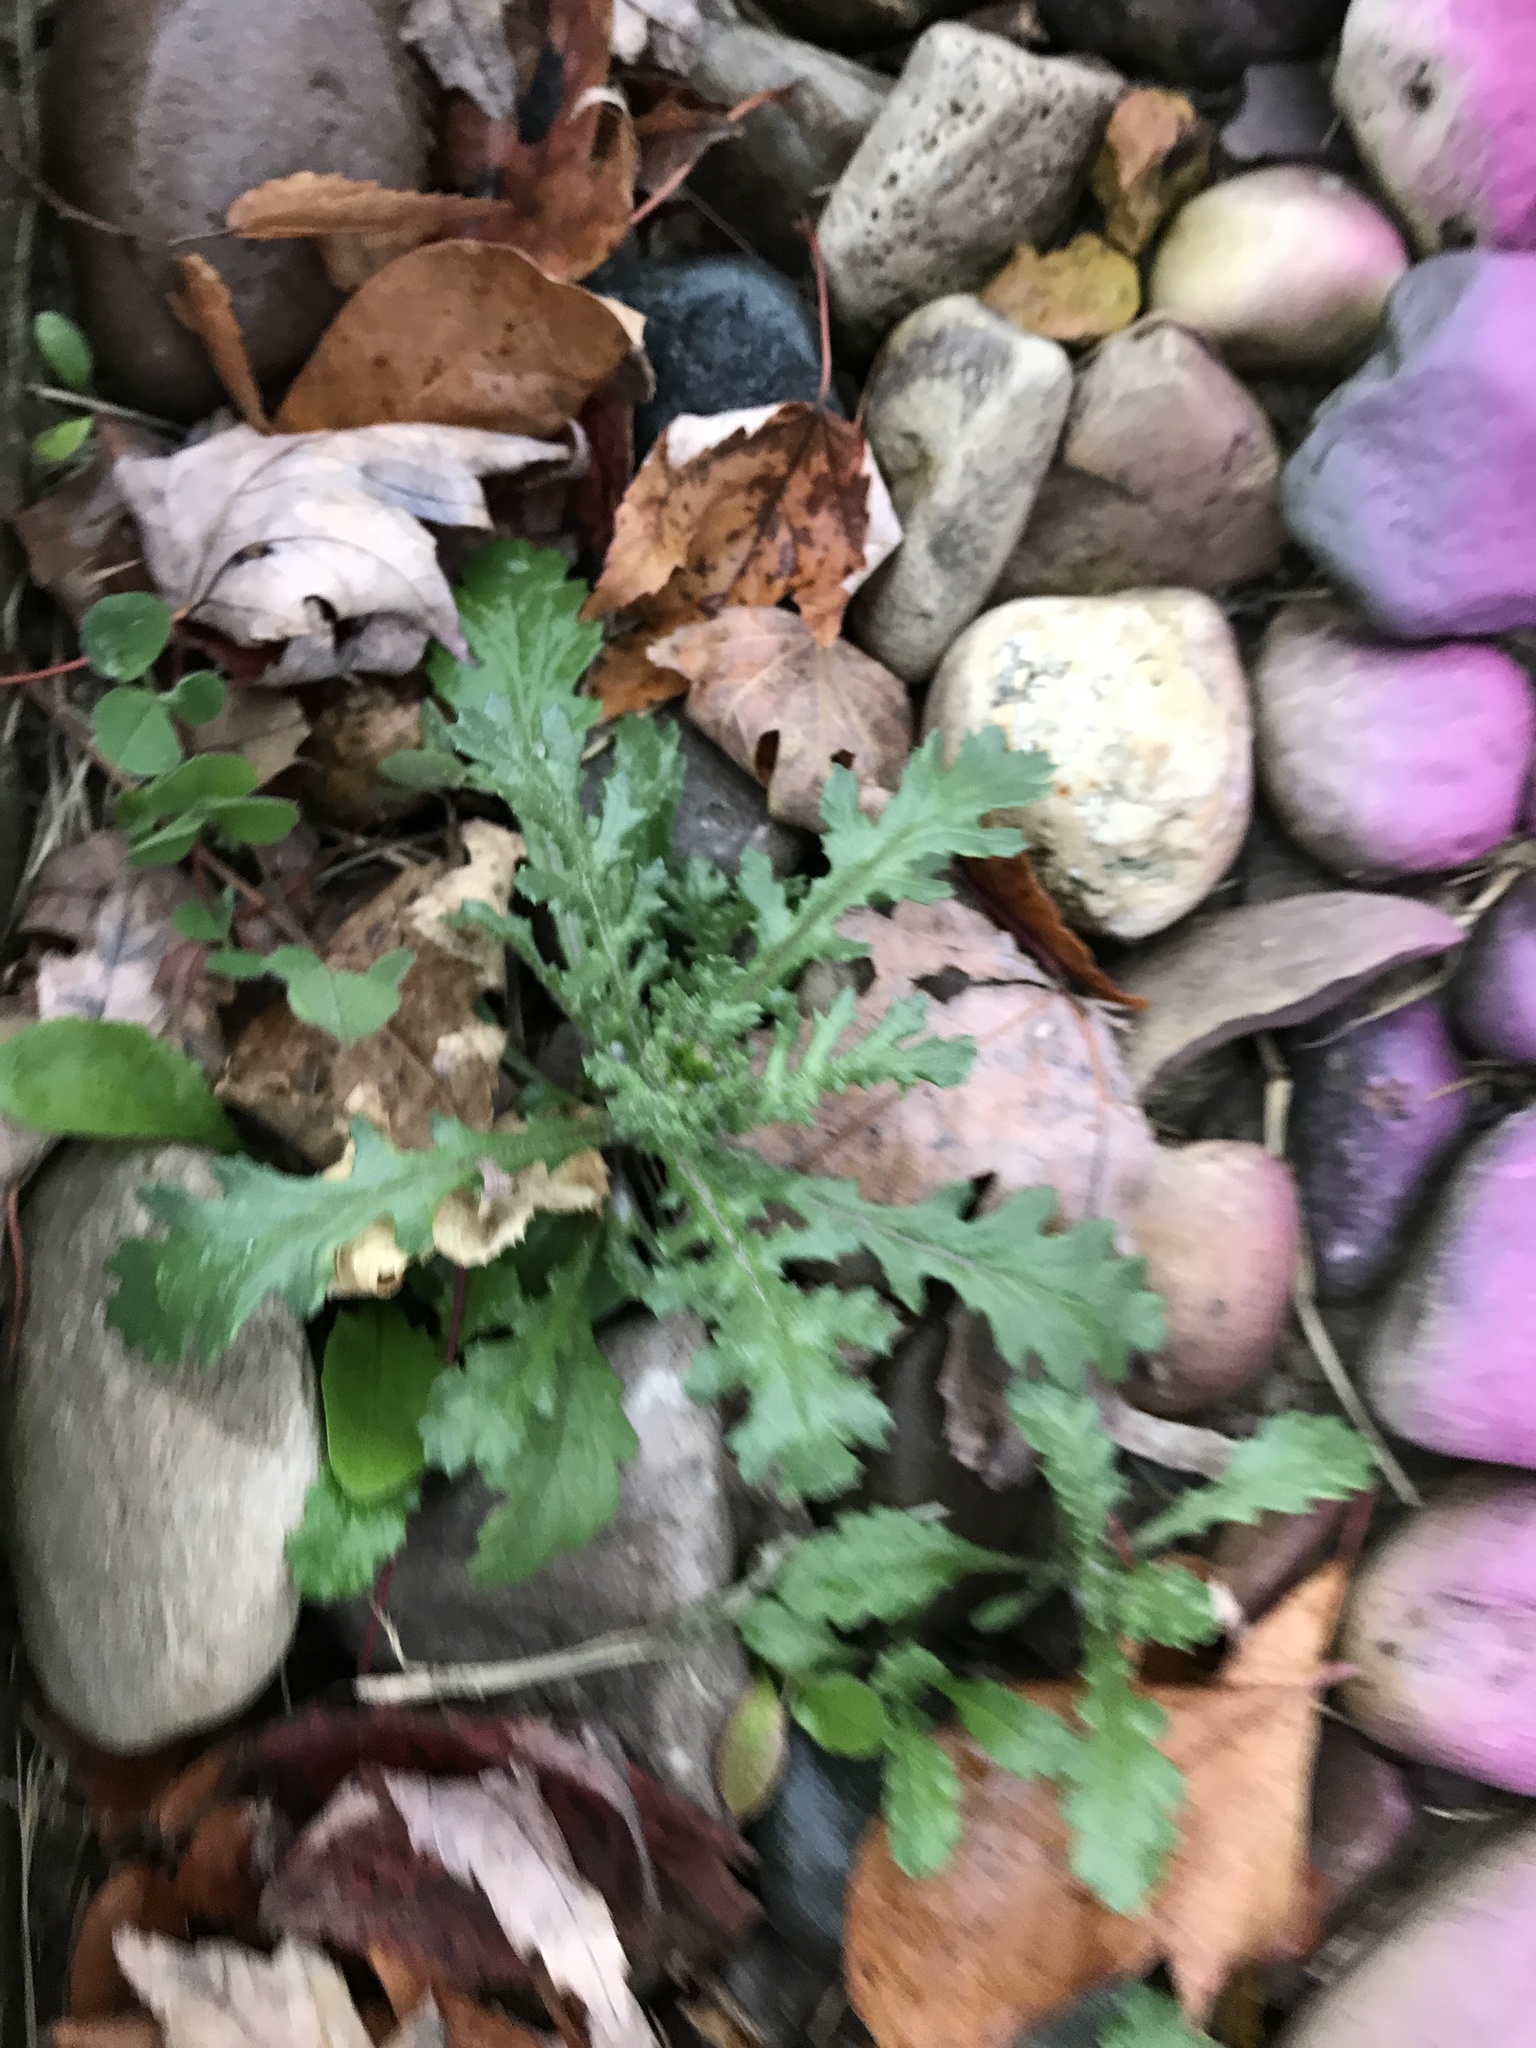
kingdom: Plantae
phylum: Tracheophyta
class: Magnoliopsida
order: Asterales
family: Asteraceae
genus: Senecio
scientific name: Senecio vulgaris
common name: Old-man-in-the-spring
